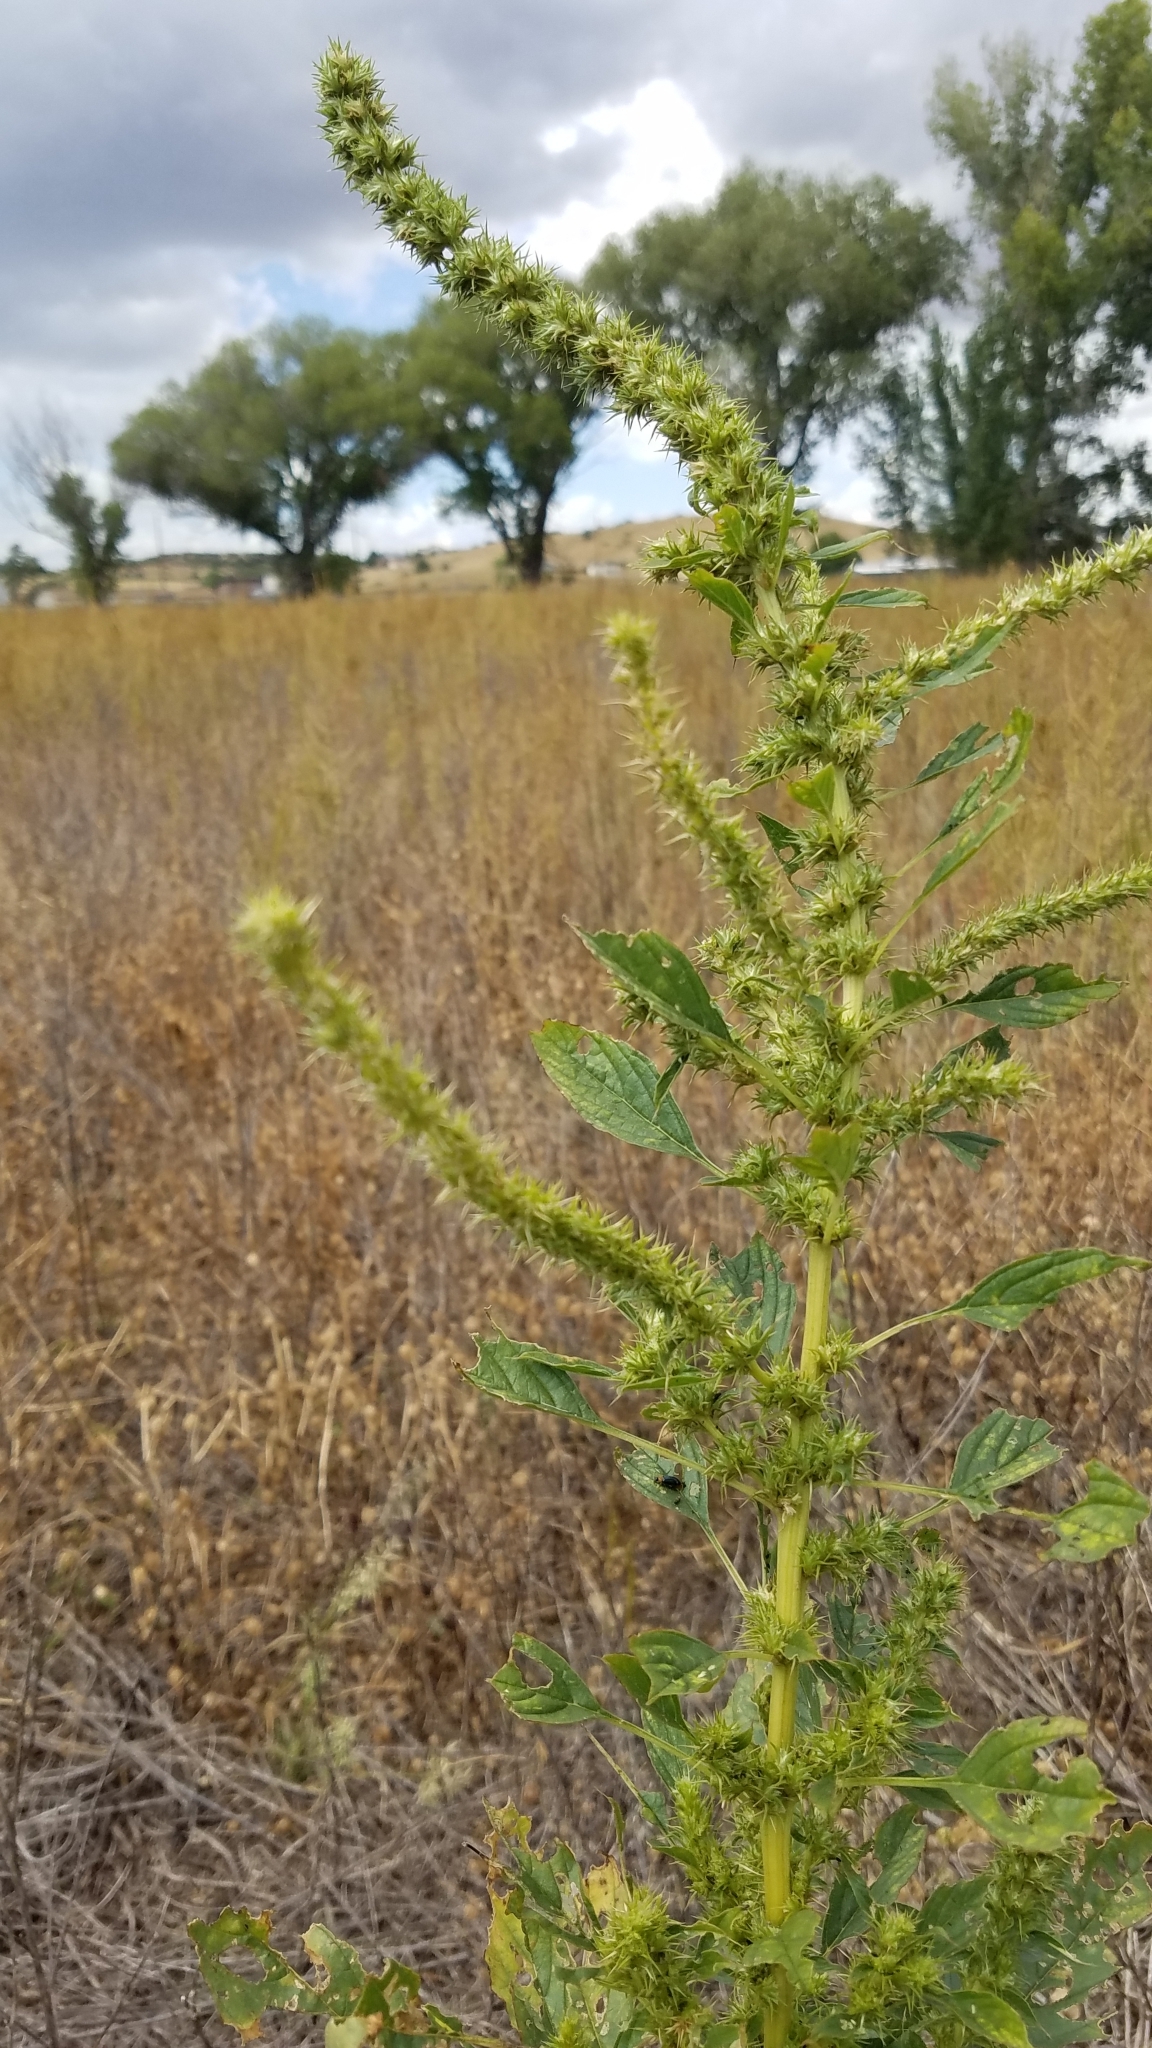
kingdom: Plantae
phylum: Tracheophyta
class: Magnoliopsida
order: Caryophyllales
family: Amaranthaceae
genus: Amaranthus
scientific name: Amaranthus palmeri
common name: Dioecious amaranth
